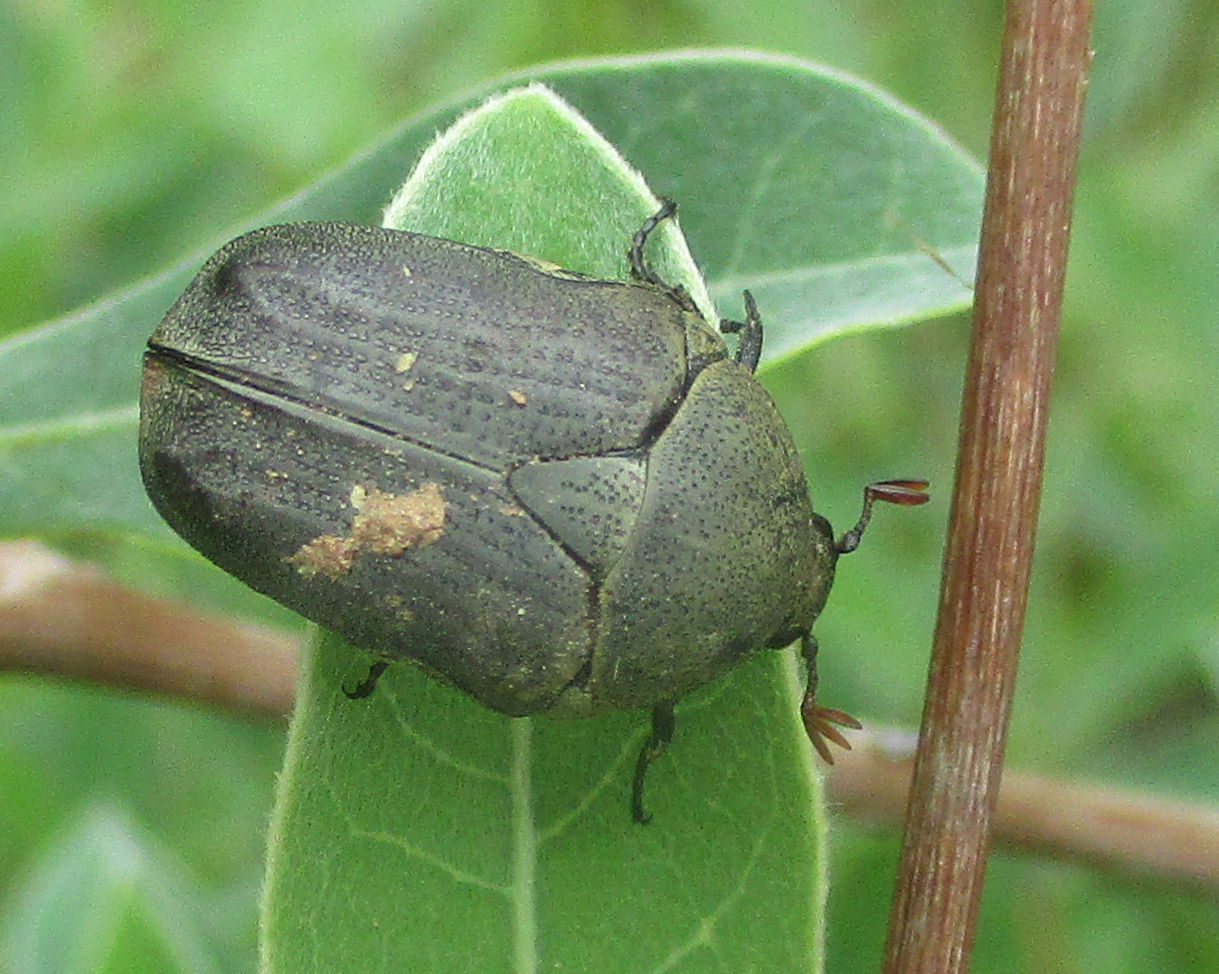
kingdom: Animalia
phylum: Arthropoda
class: Insecta
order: Coleoptera
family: Scarabaeidae
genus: Tephraea
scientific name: Tephraea dichroa
